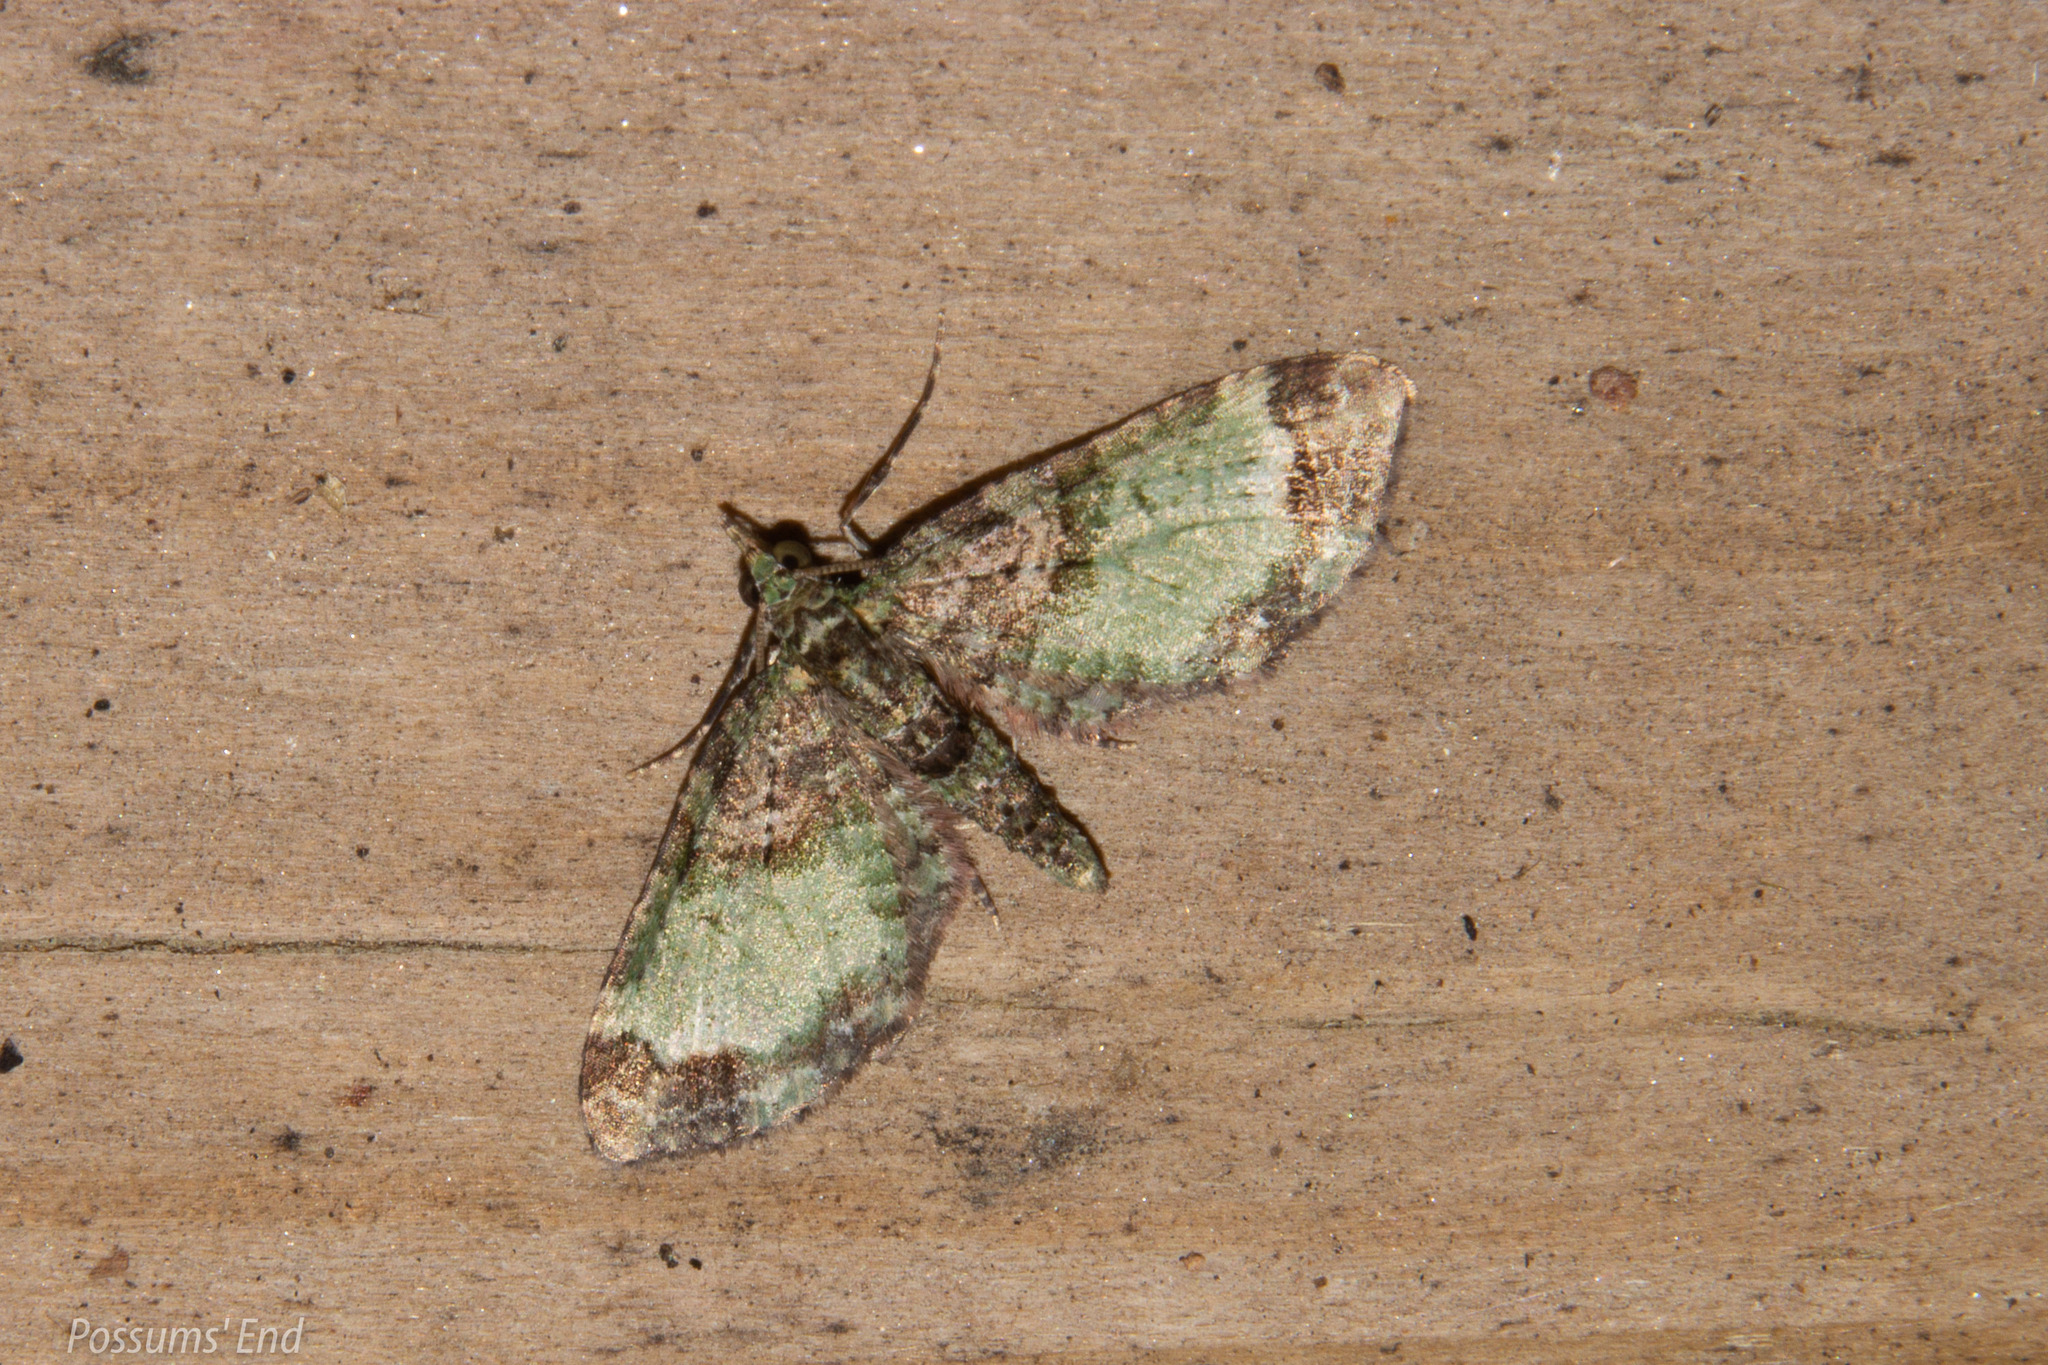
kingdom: Animalia
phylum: Arthropoda
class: Insecta
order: Lepidoptera
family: Geometridae
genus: Idaea
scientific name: Idaea mutanda
